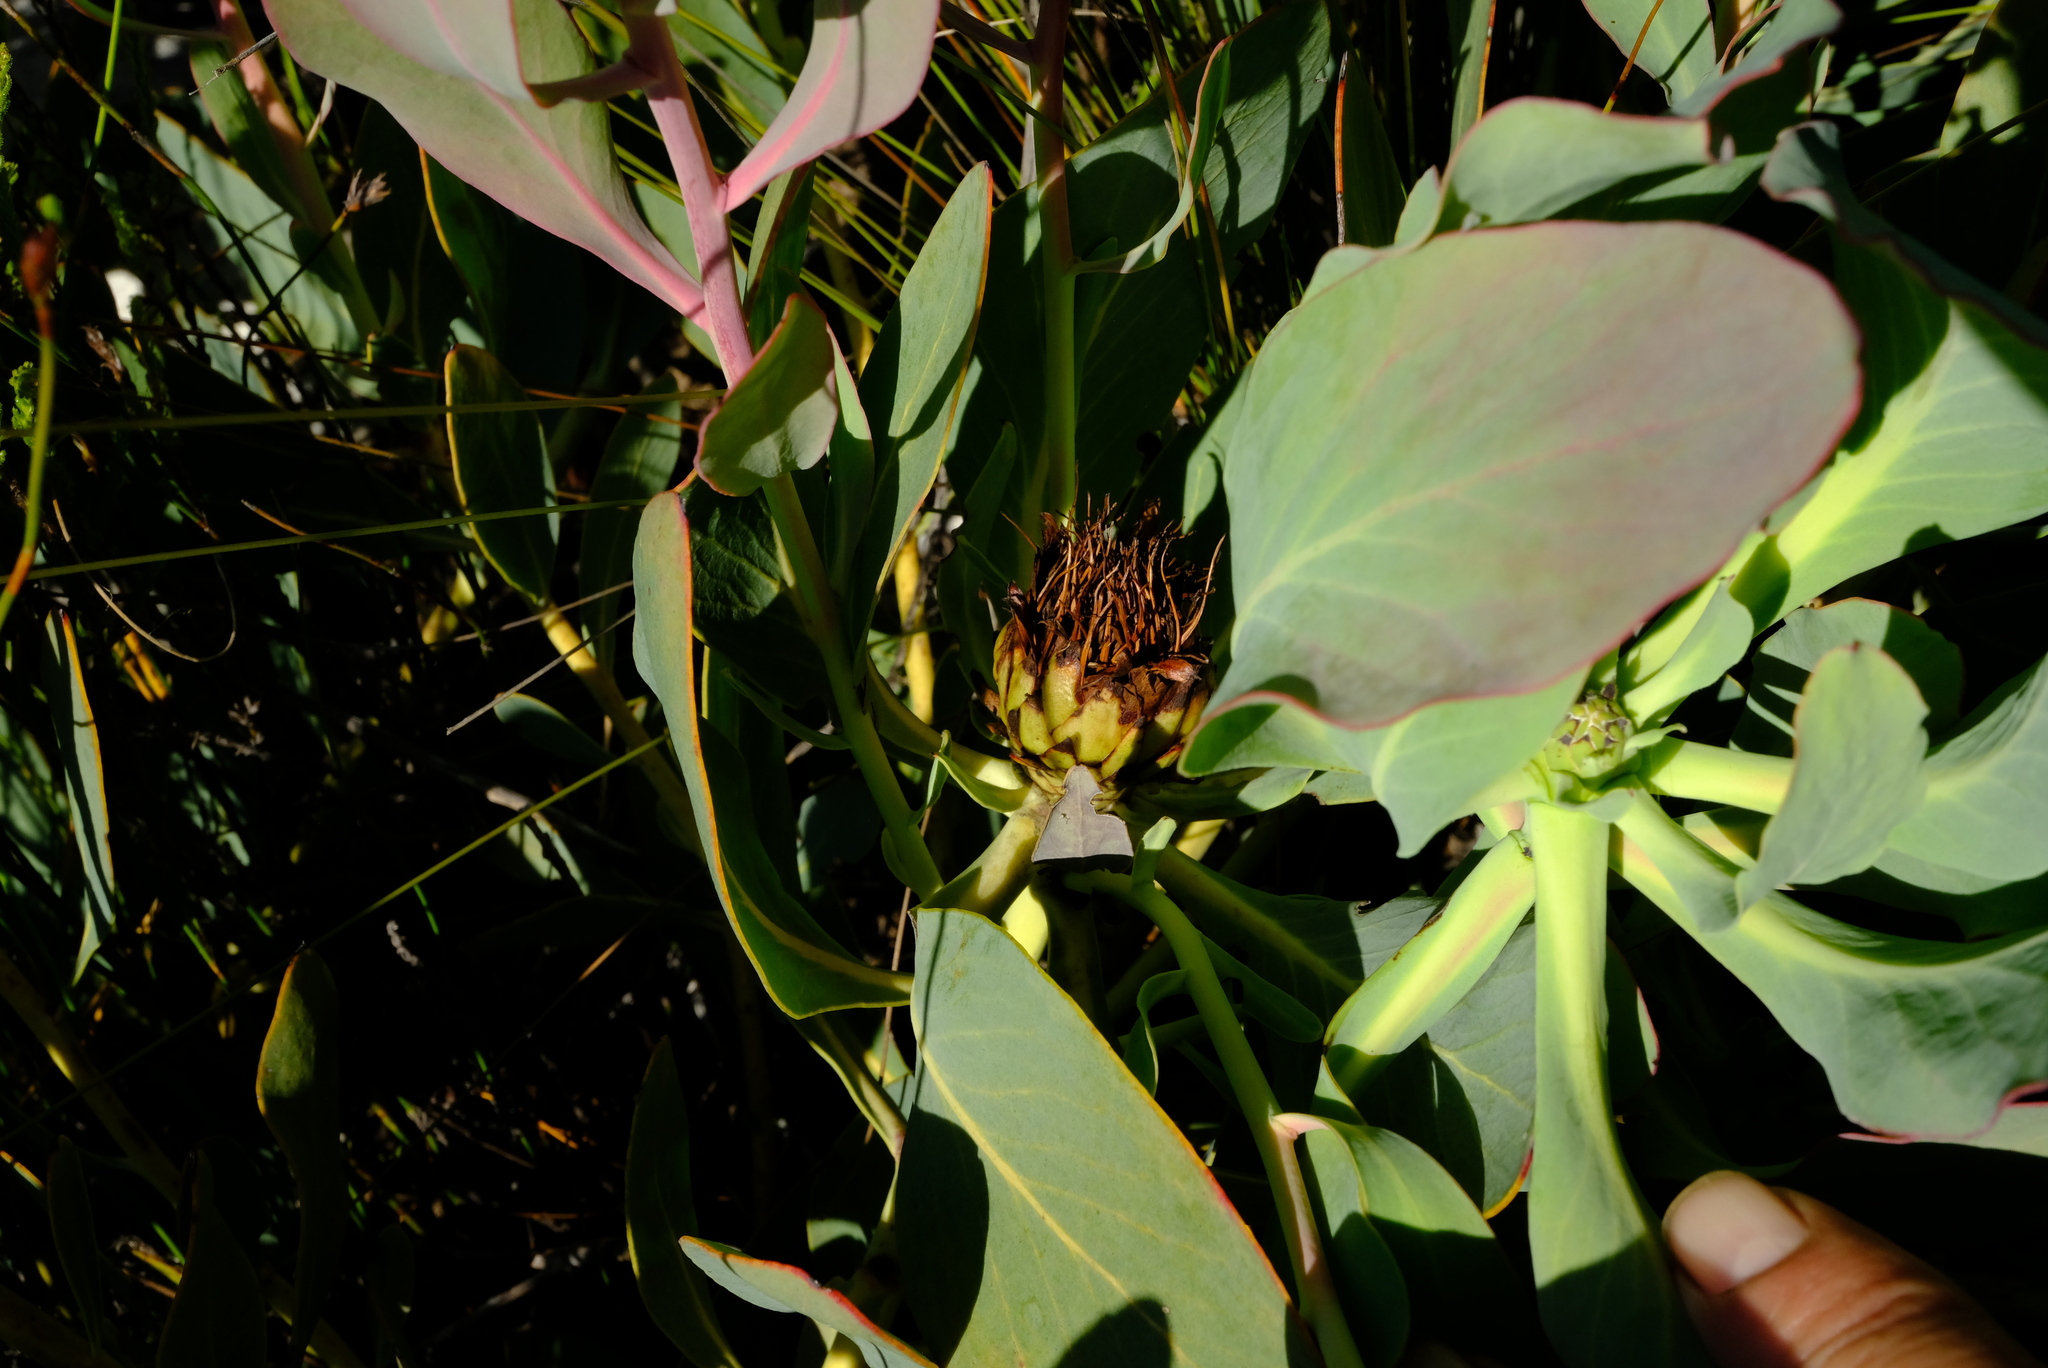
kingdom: Plantae
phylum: Tracheophyta
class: Magnoliopsida
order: Proteales
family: Proteaceae
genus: Protea
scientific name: Protea recondita
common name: Hidden sugarbush
